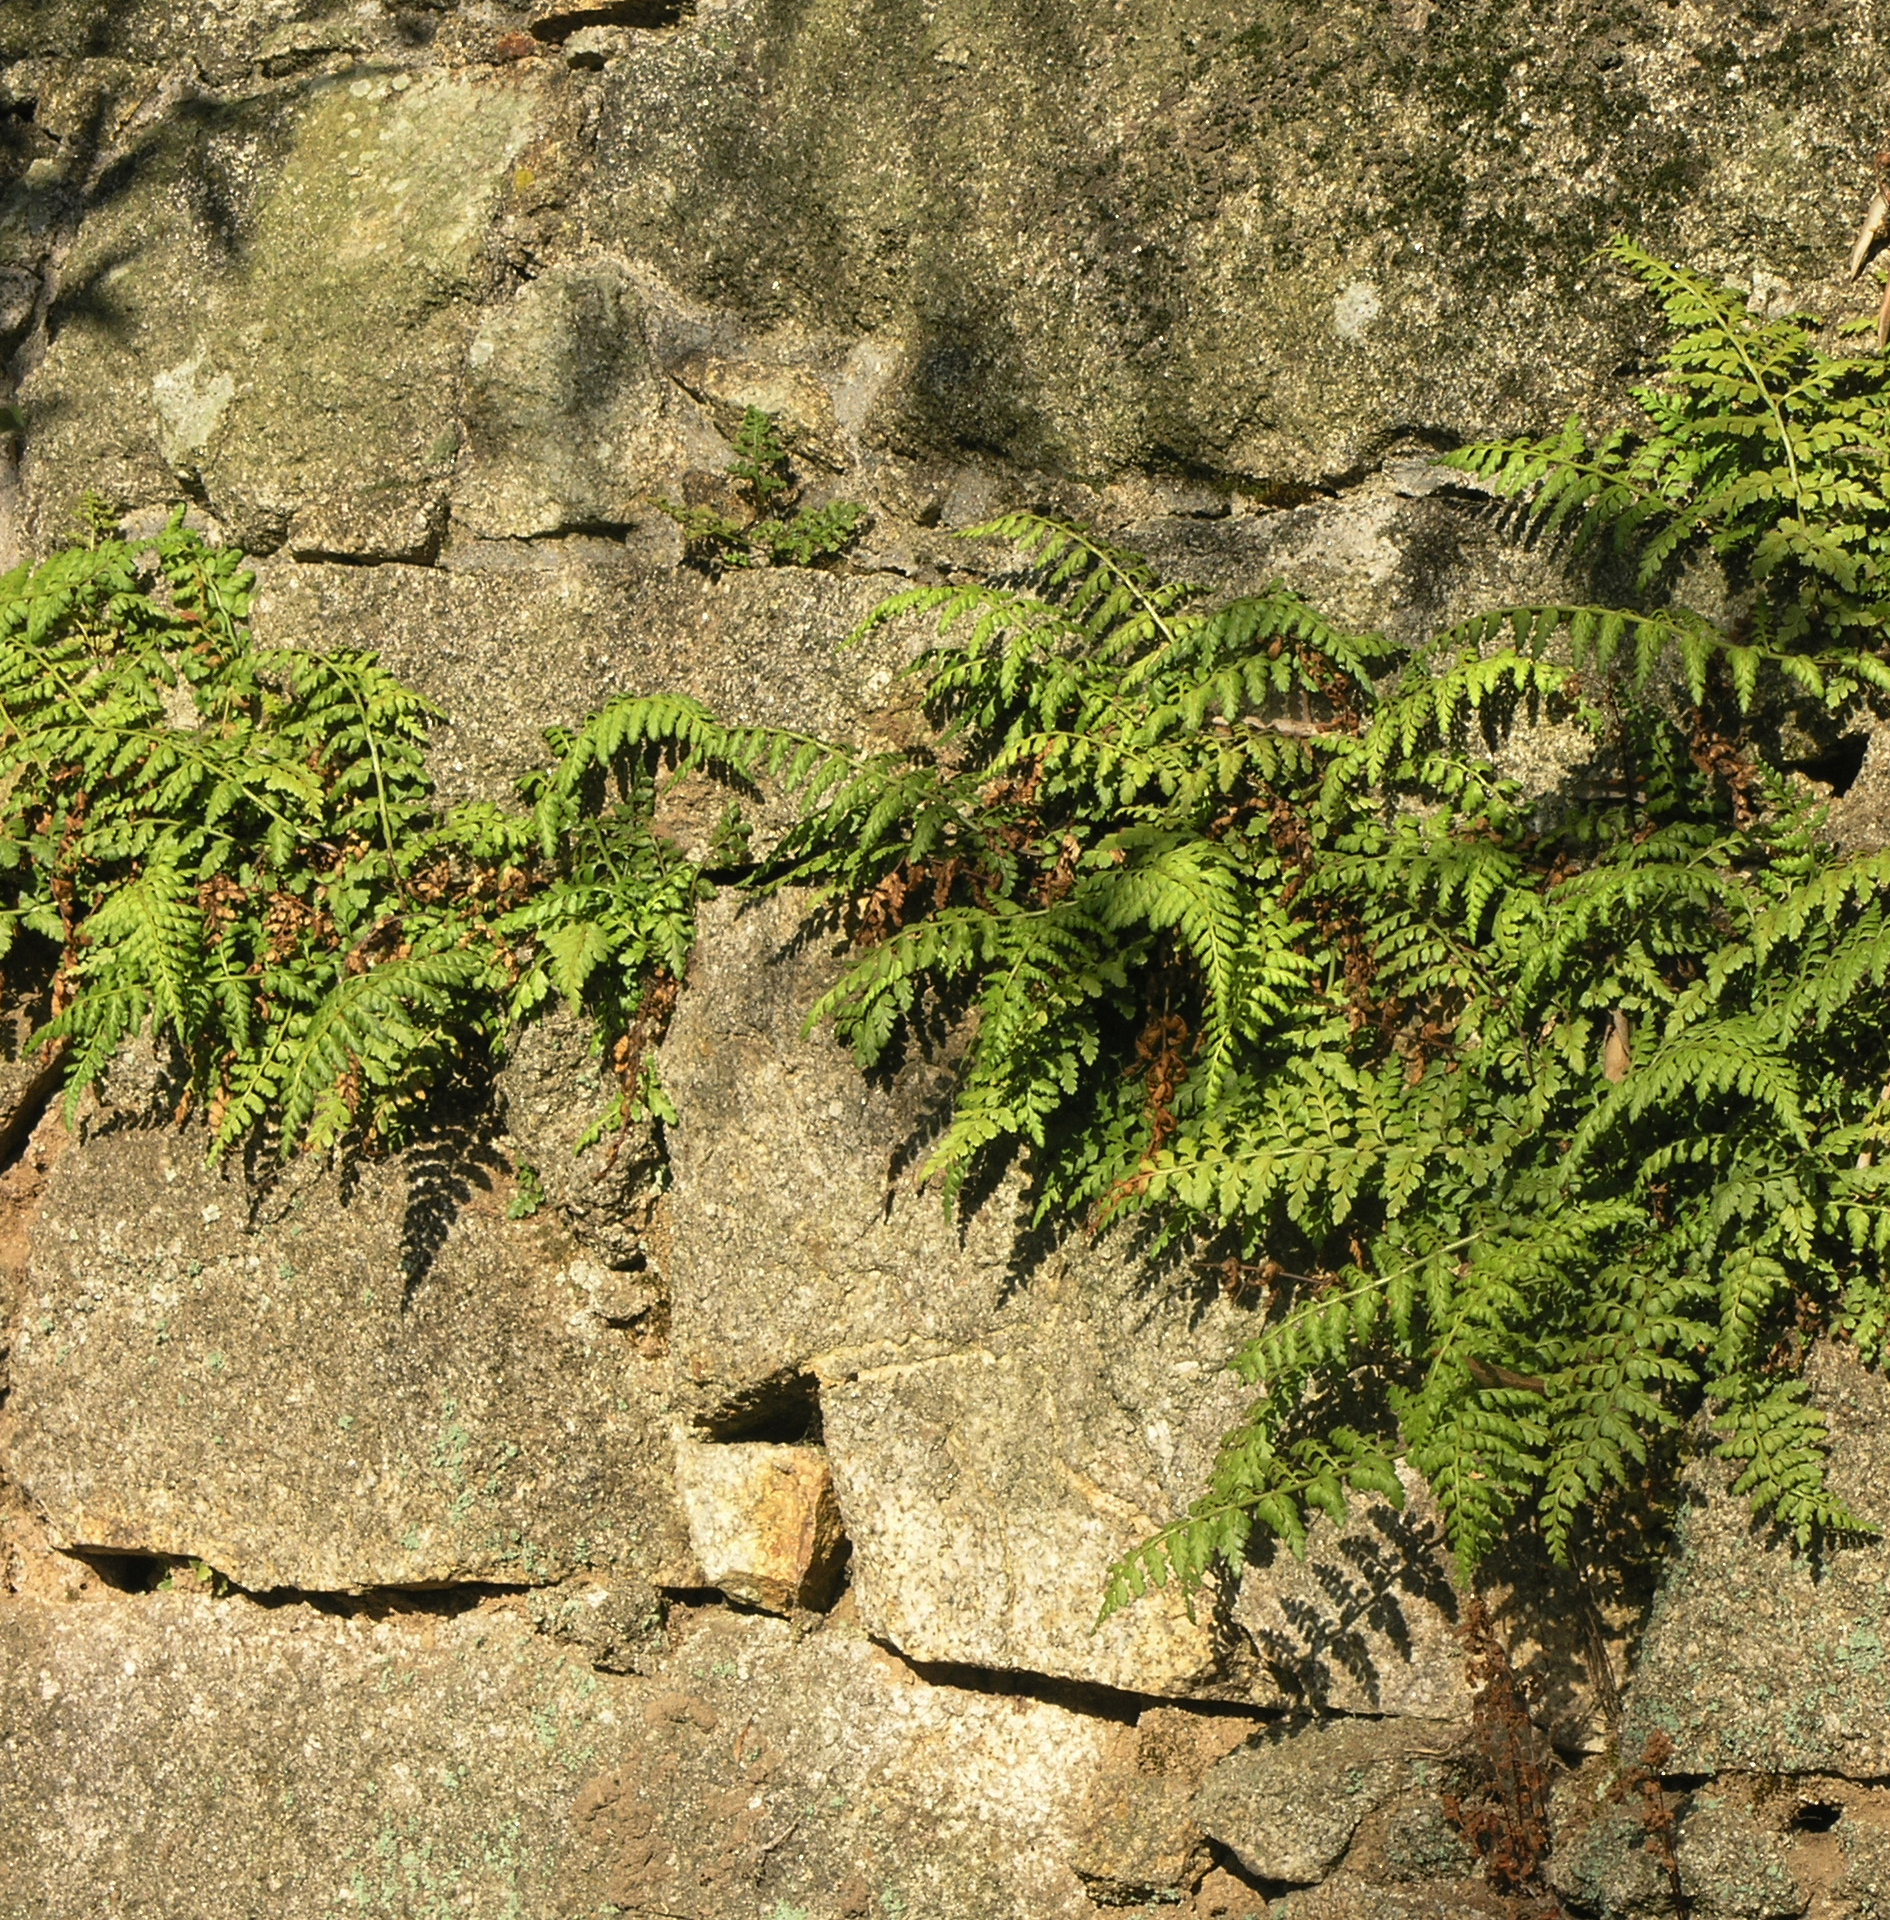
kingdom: Plantae
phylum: Tracheophyta
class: Polypodiopsida
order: Polypodiales
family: Aspleniaceae
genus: Asplenium
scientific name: Asplenium obovatum
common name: Lanceolate spleenwort
